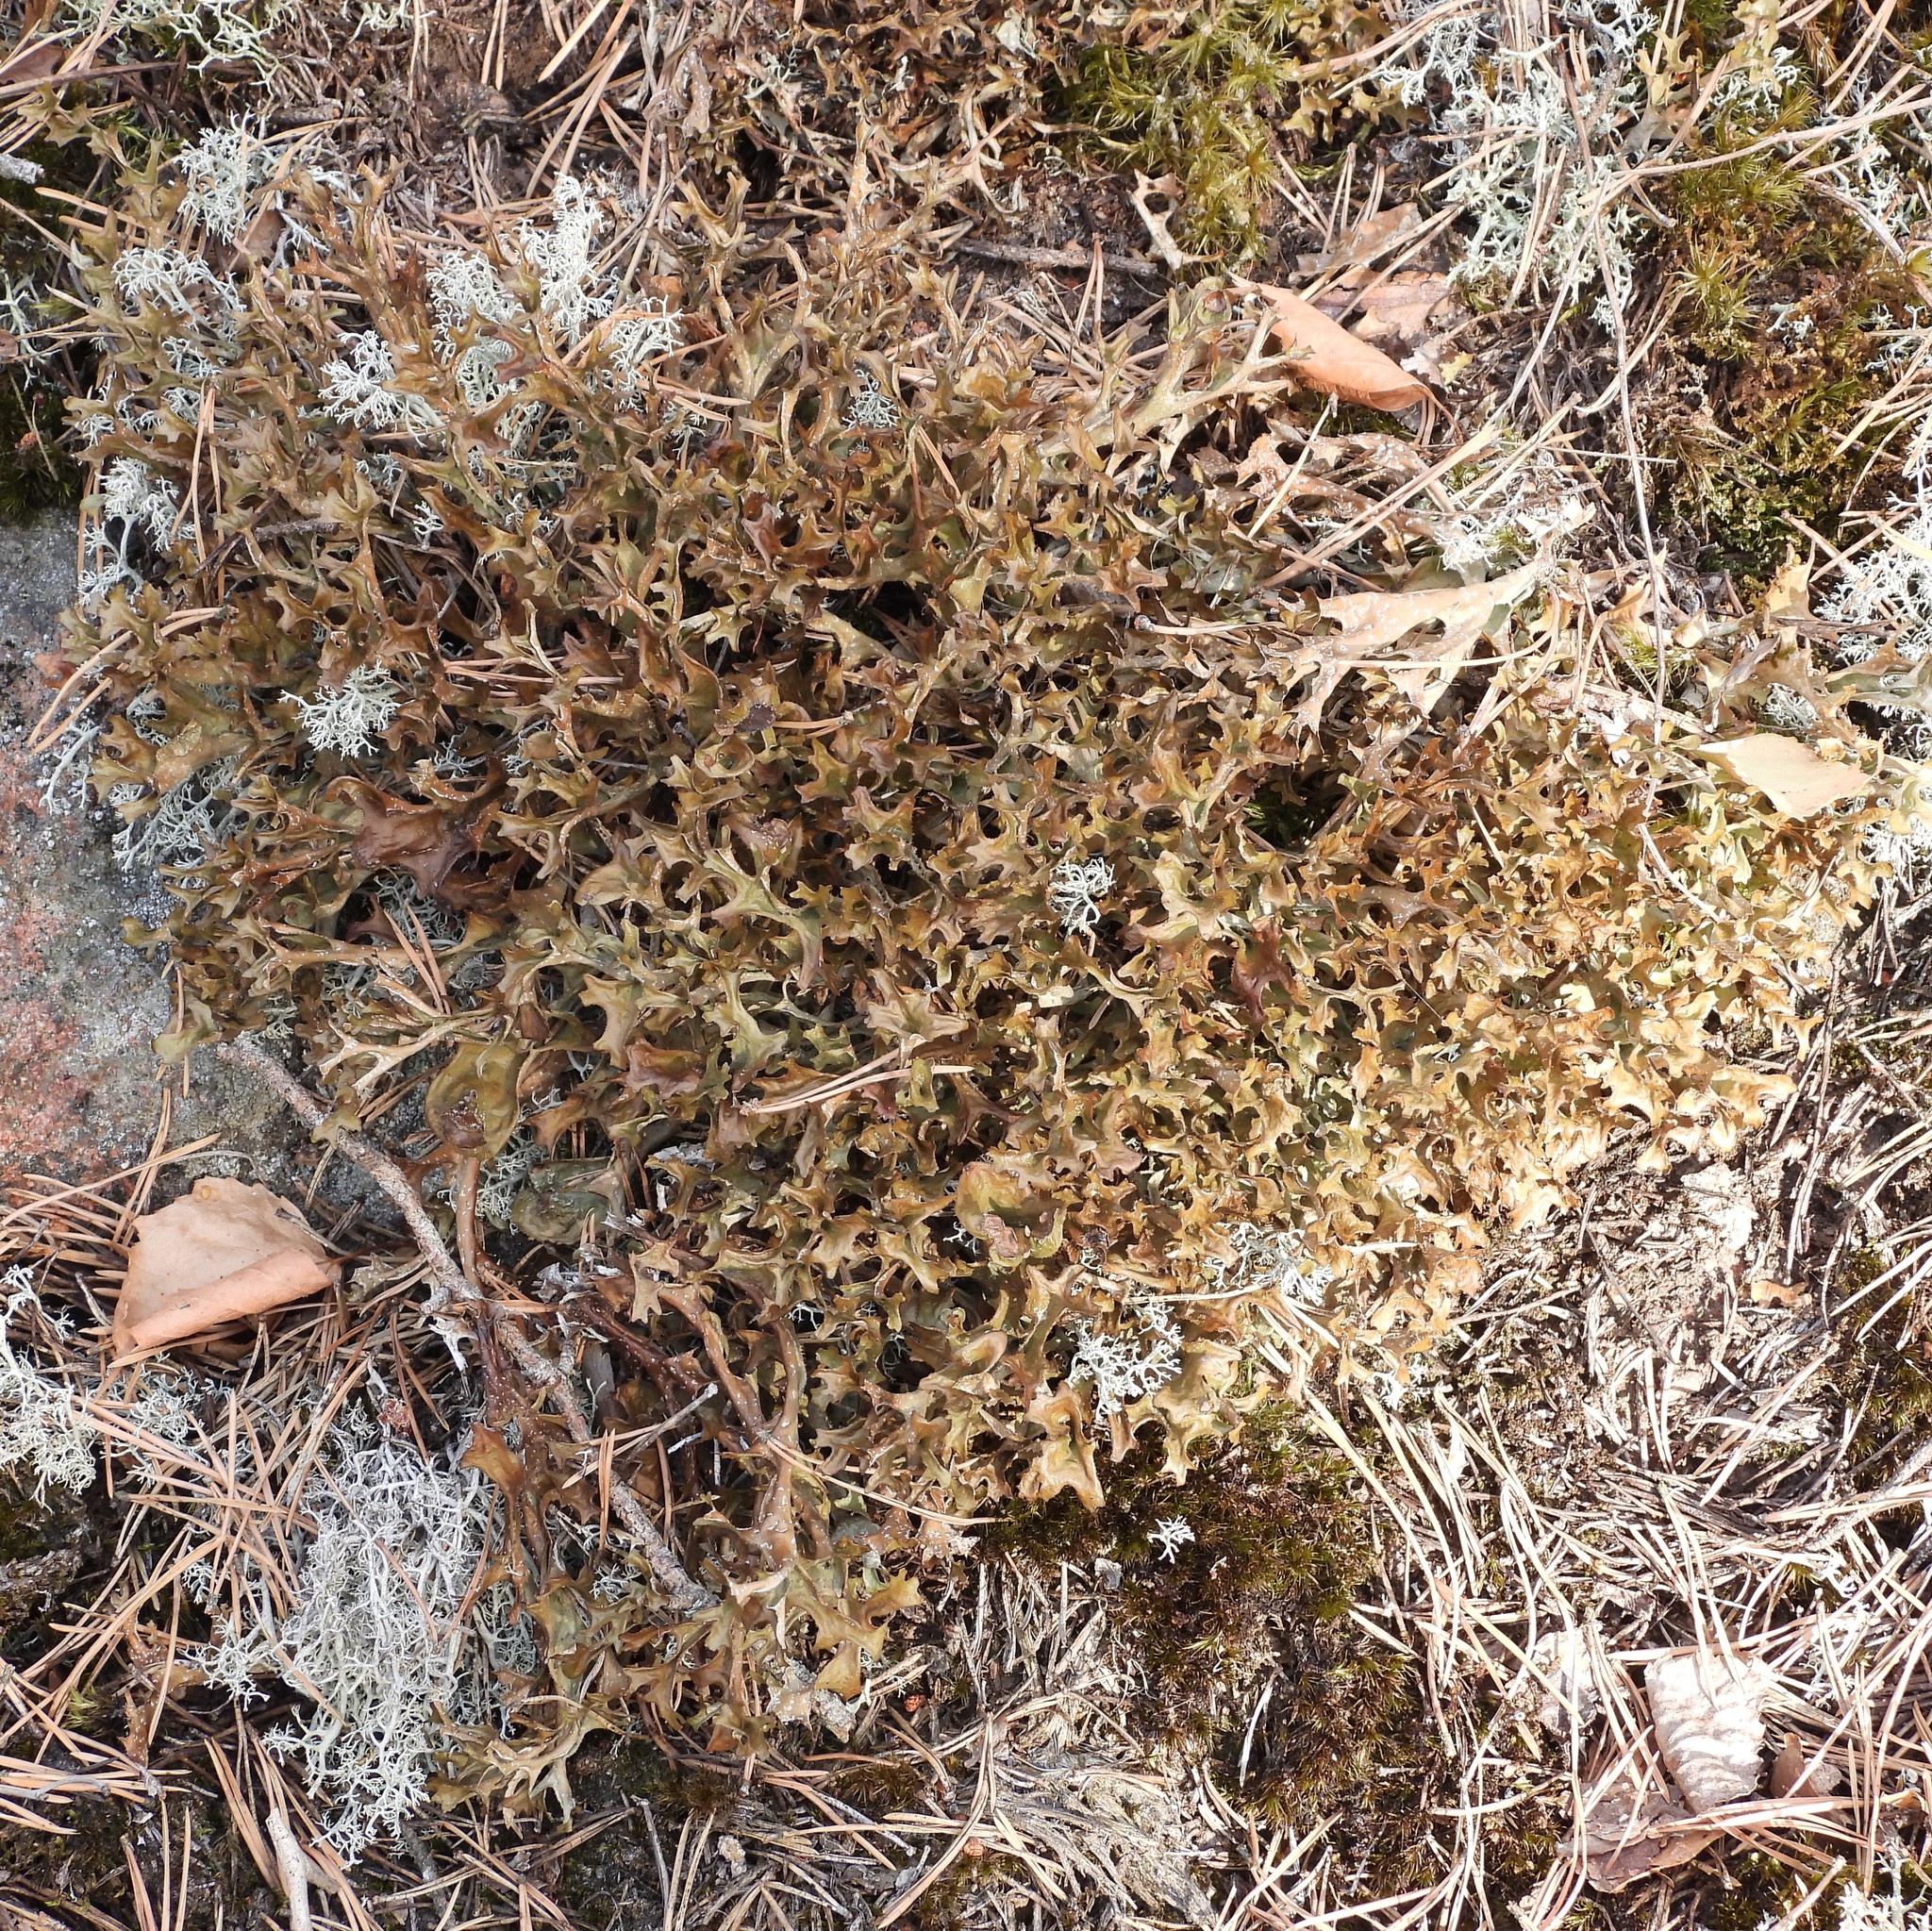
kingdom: Fungi
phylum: Ascomycota
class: Lecanoromycetes
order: Lecanorales
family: Parmeliaceae
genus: Cetraria
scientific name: Cetraria islandica
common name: Iceland lichen
